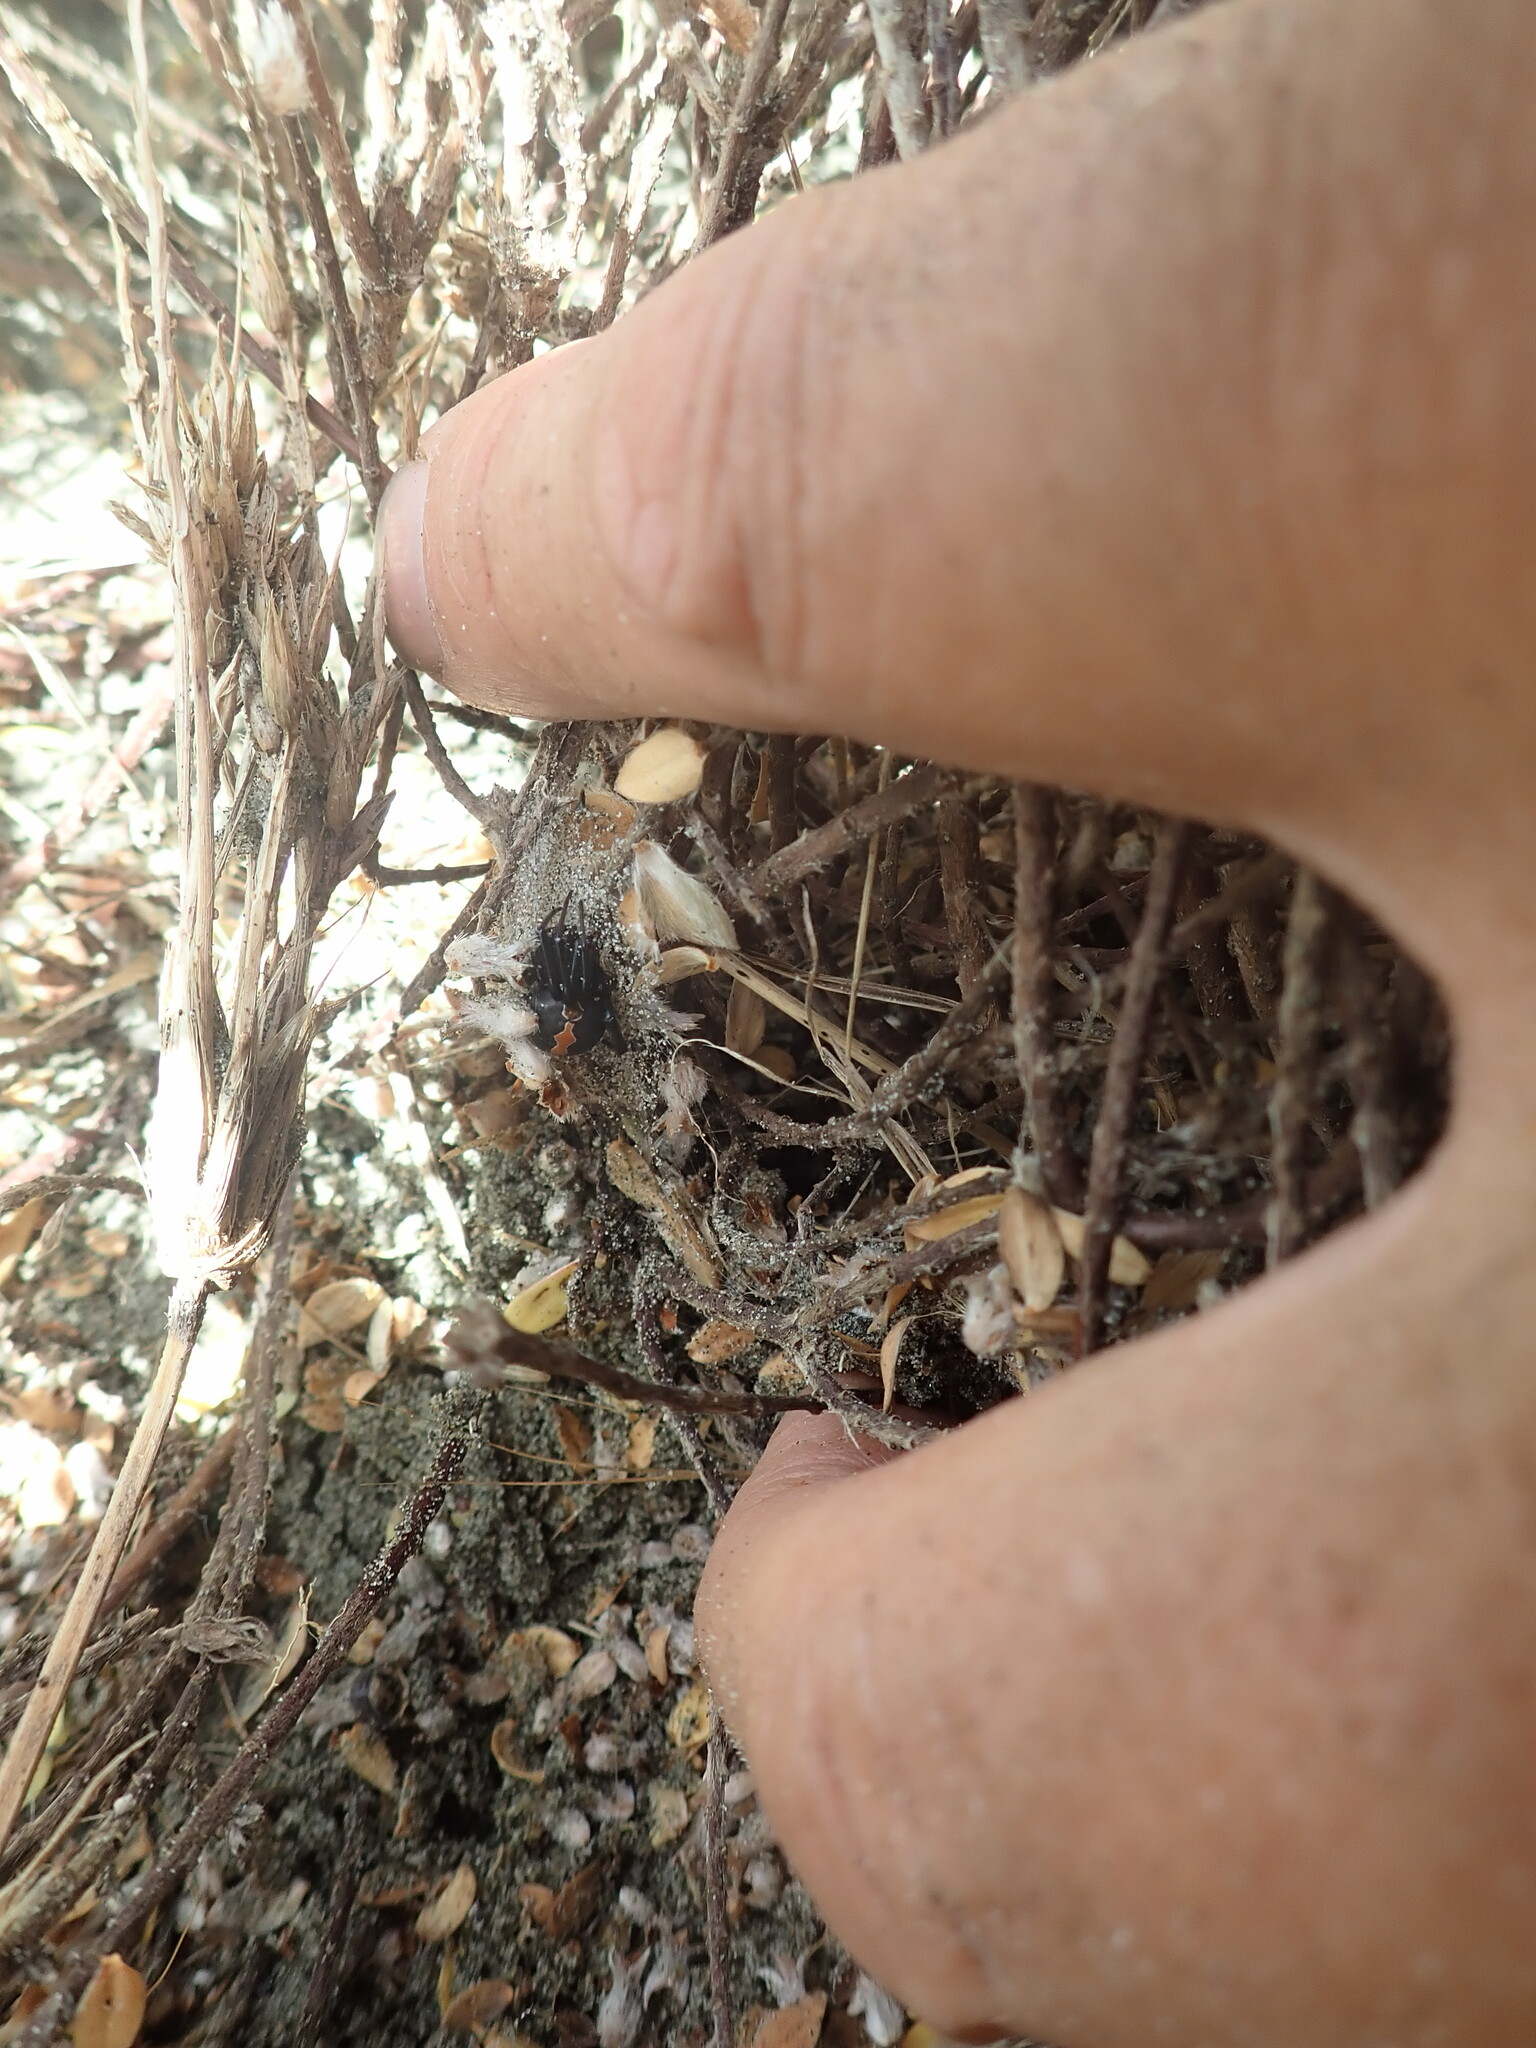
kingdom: Animalia
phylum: Arthropoda
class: Arachnida
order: Araneae
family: Theridiidae
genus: Latrodectus
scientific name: Latrodectus katipo
